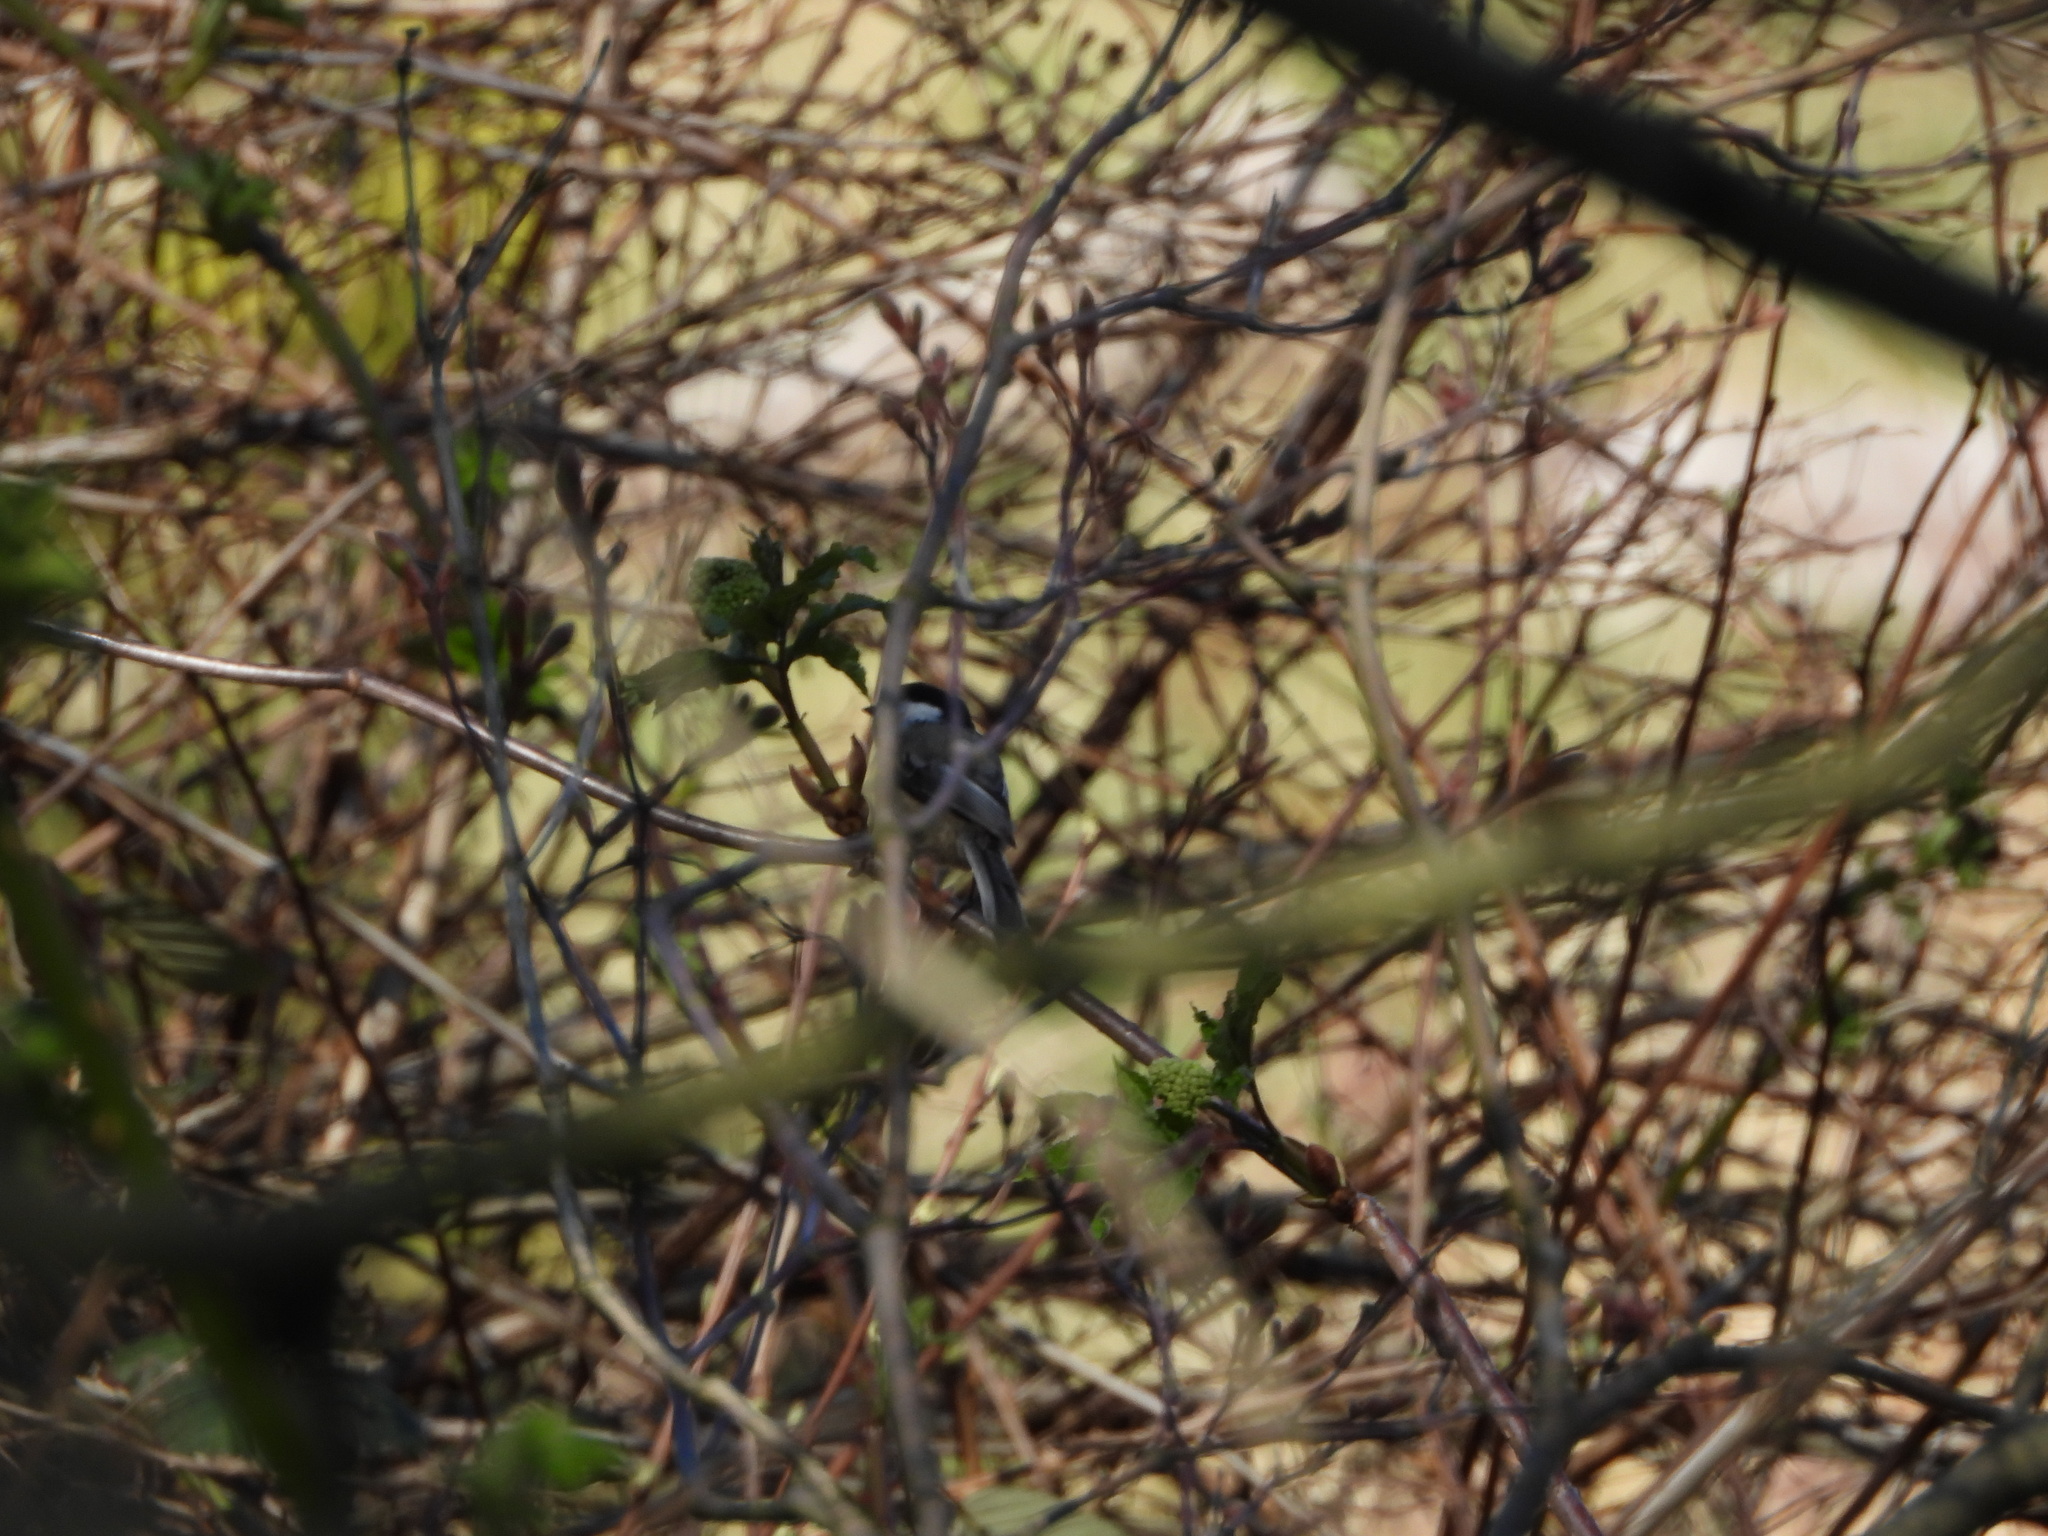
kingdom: Animalia
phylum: Chordata
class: Aves
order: Passeriformes
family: Paridae
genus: Poecile
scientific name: Poecile atricapillus
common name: Black-capped chickadee
